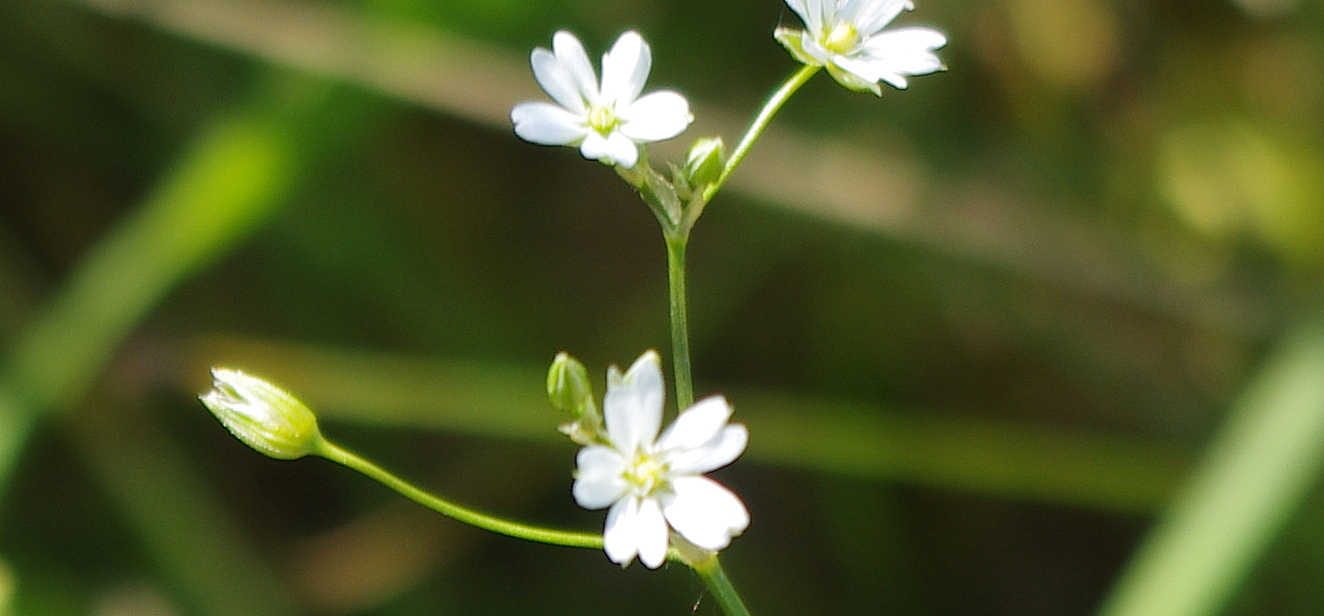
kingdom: Plantae
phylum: Tracheophyta
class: Magnoliopsida
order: Caryophyllales
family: Caryophyllaceae
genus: Stellaria
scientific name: Stellaria graminea
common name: Grass-like starwort
